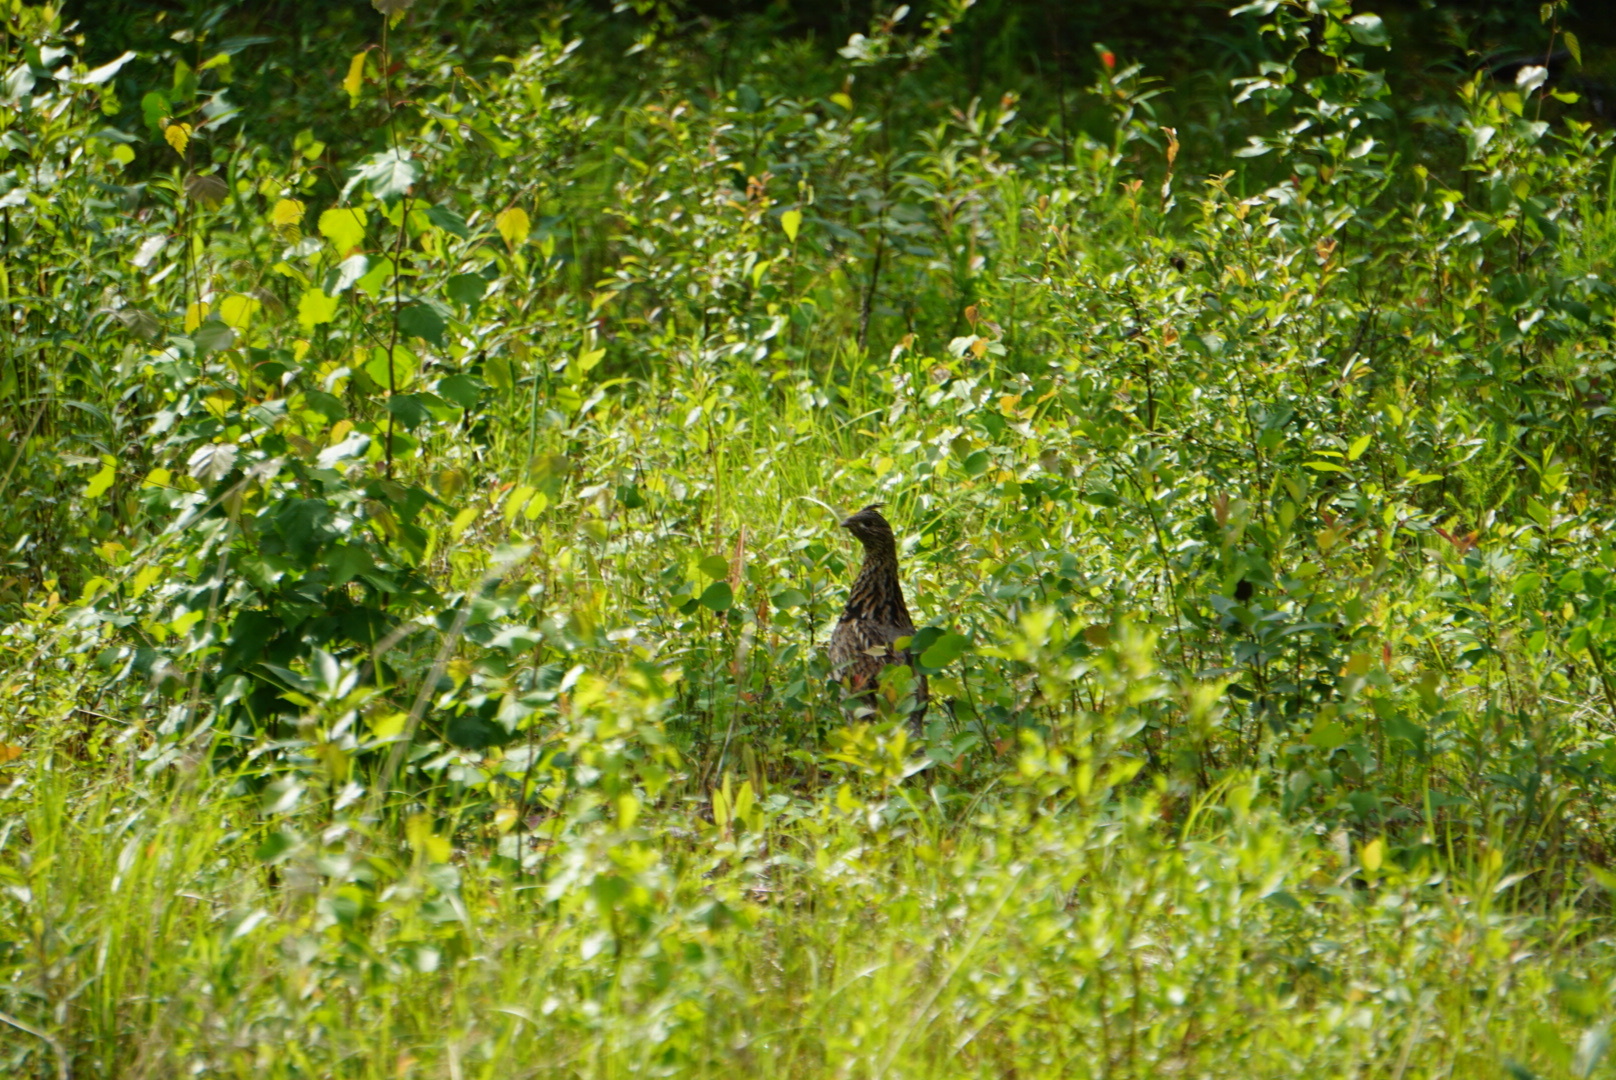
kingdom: Animalia
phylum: Chordata
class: Aves
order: Galliformes
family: Phasianidae
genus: Bonasa
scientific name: Bonasa umbellus
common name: Ruffed grouse
